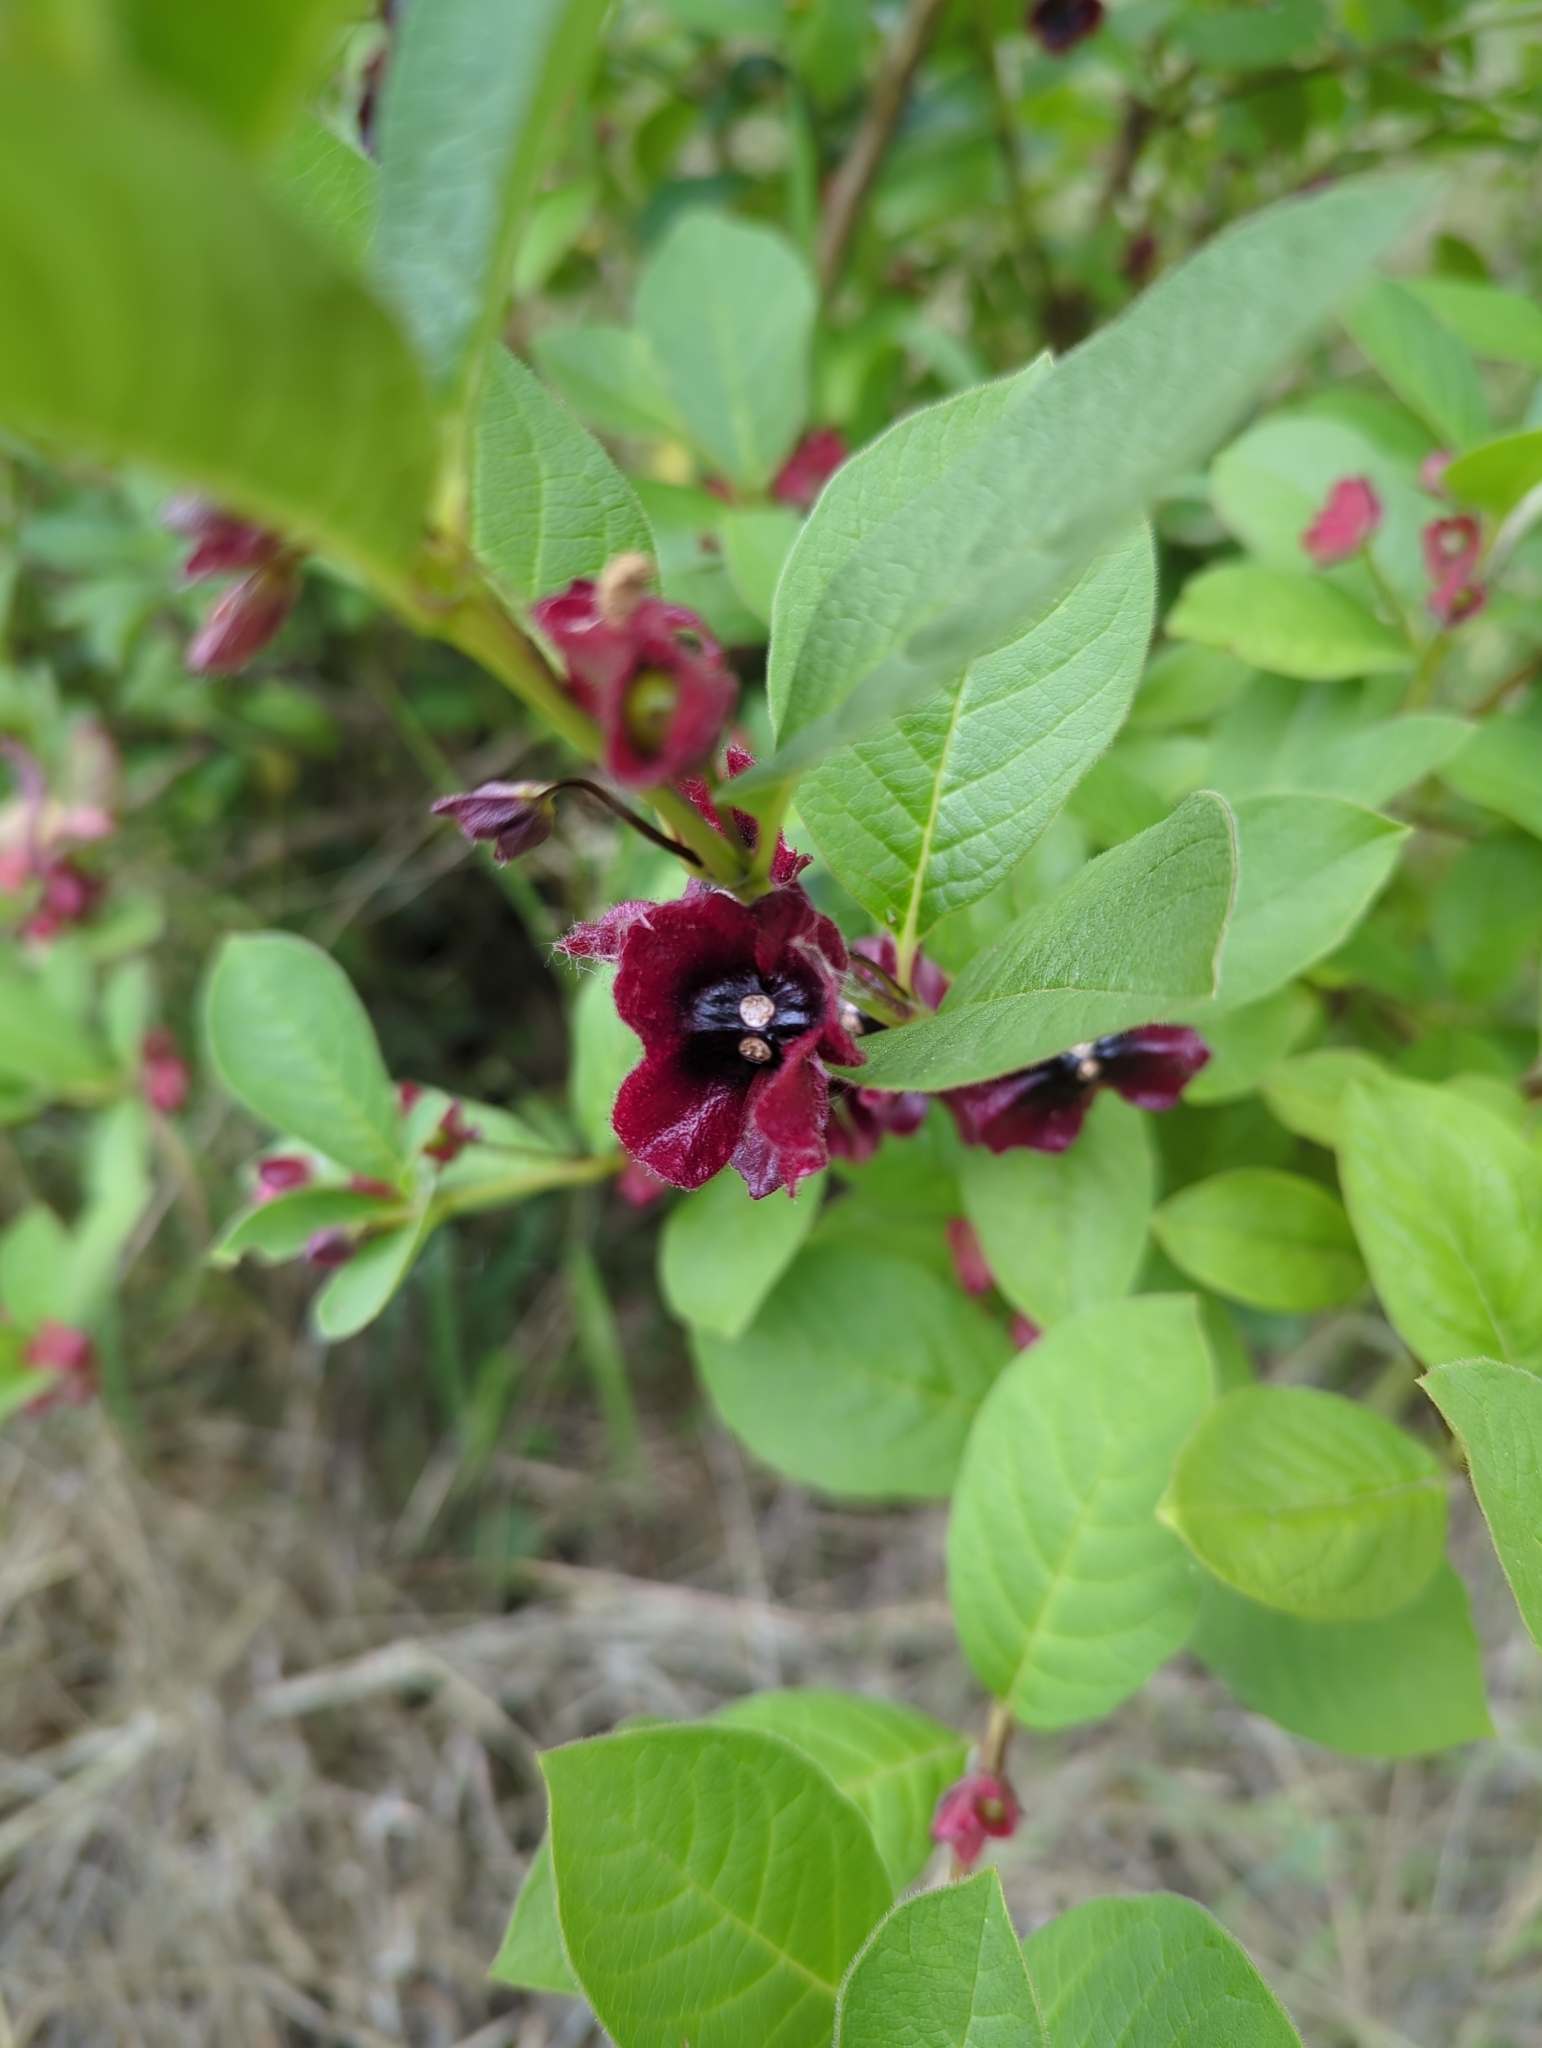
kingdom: Plantae
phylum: Tracheophyta
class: Magnoliopsida
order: Dipsacales
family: Caprifoliaceae
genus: Lonicera
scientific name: Lonicera involucrata
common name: Californian honeysuckle
